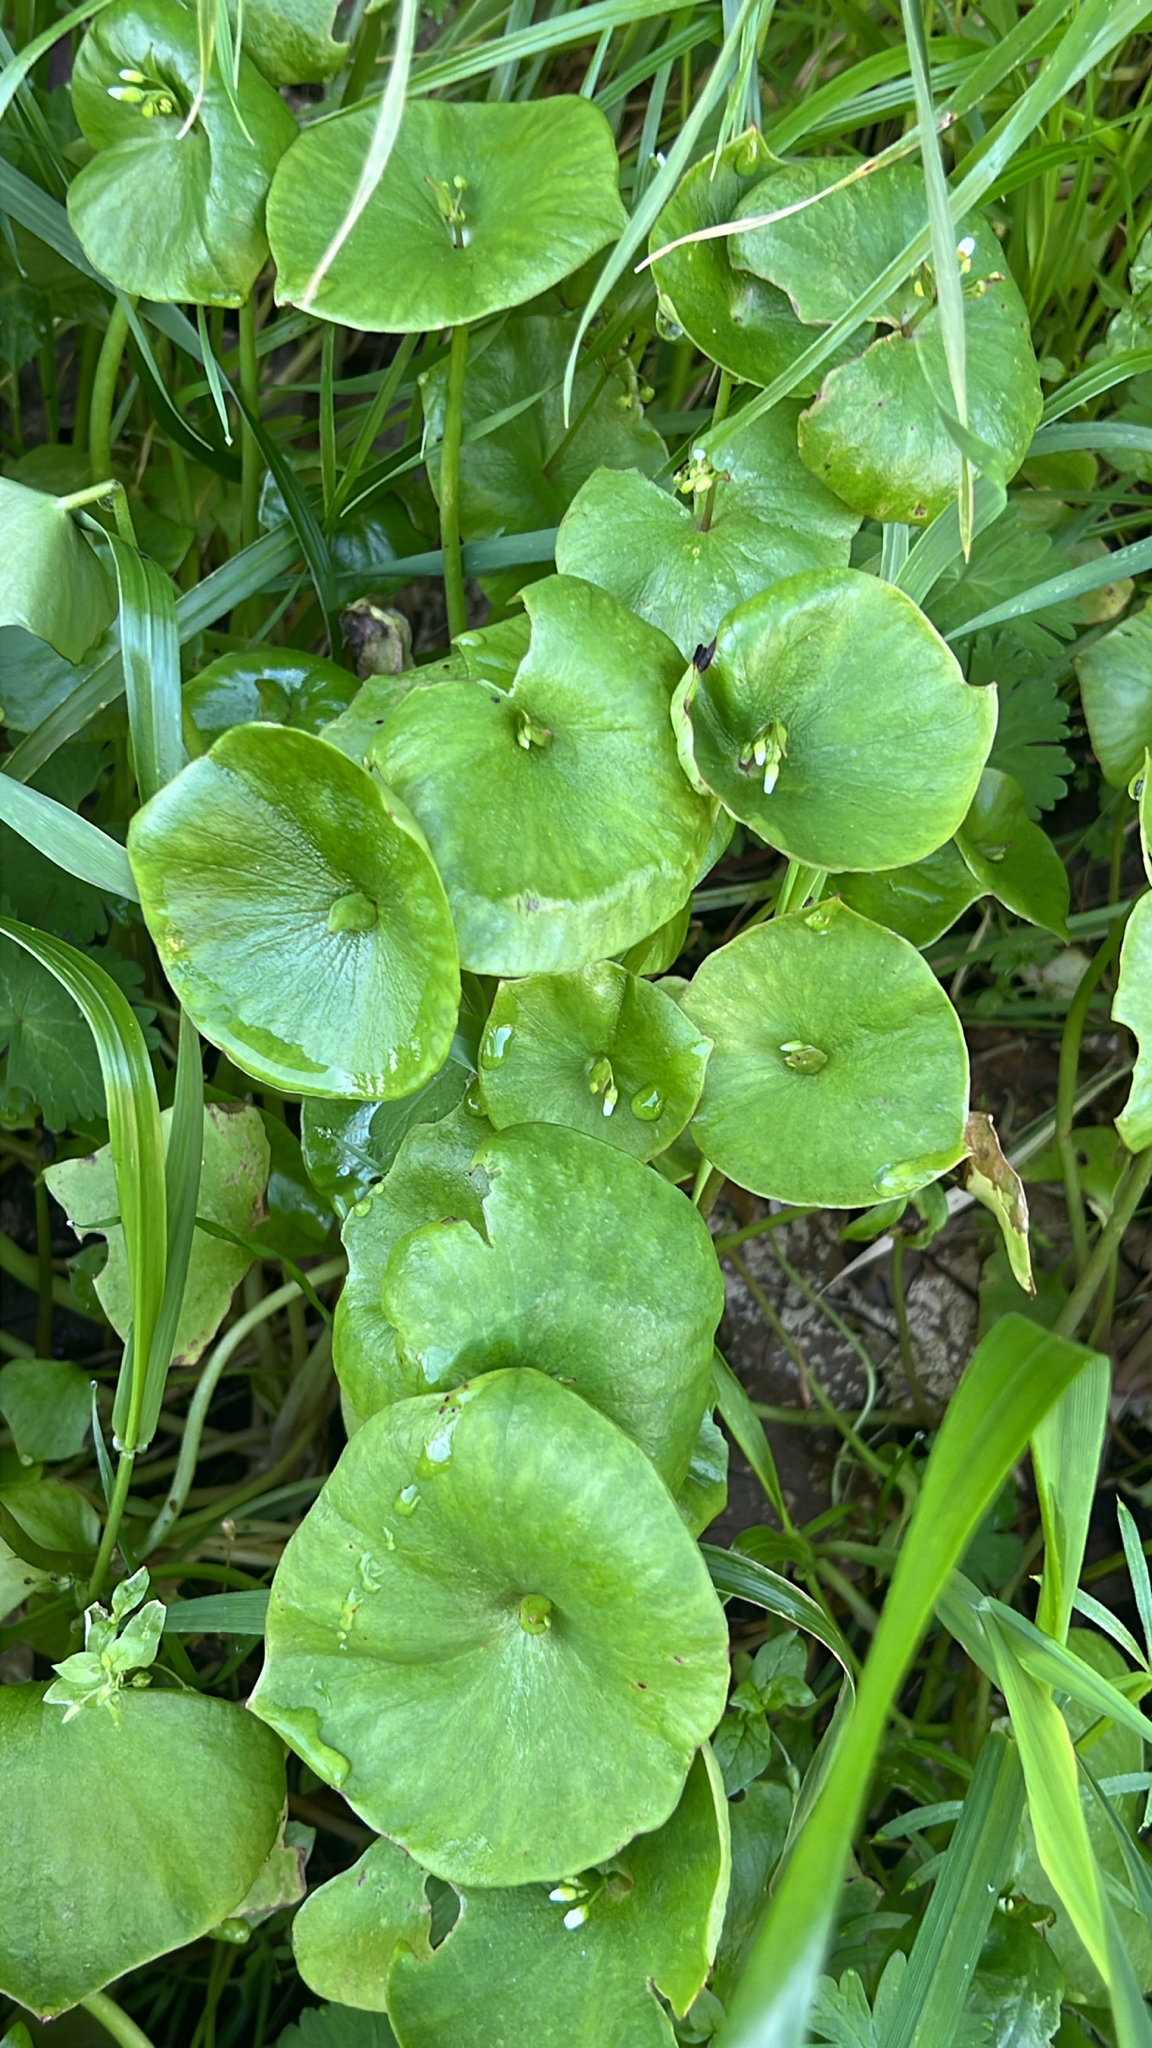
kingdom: Plantae
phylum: Tracheophyta
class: Magnoliopsida
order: Caryophyllales
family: Montiaceae
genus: Claytonia
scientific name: Claytonia perfoliata
